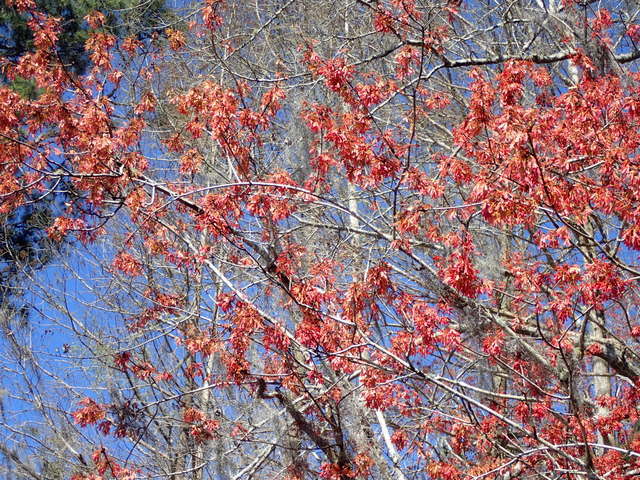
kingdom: Plantae
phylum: Tracheophyta
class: Magnoliopsida
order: Sapindales
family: Sapindaceae
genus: Acer
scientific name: Acer rubrum
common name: Red maple
